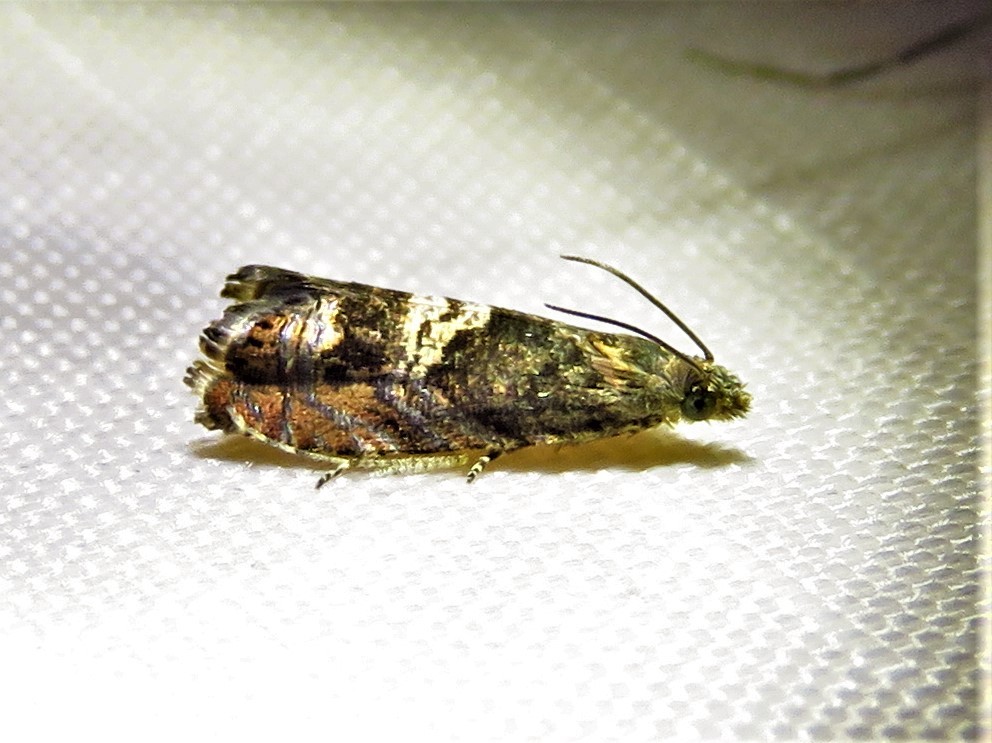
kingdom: Animalia
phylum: Arthropoda
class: Insecta
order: Lepidoptera
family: Tortricidae
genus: Goditha
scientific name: Goditha bumeliana
